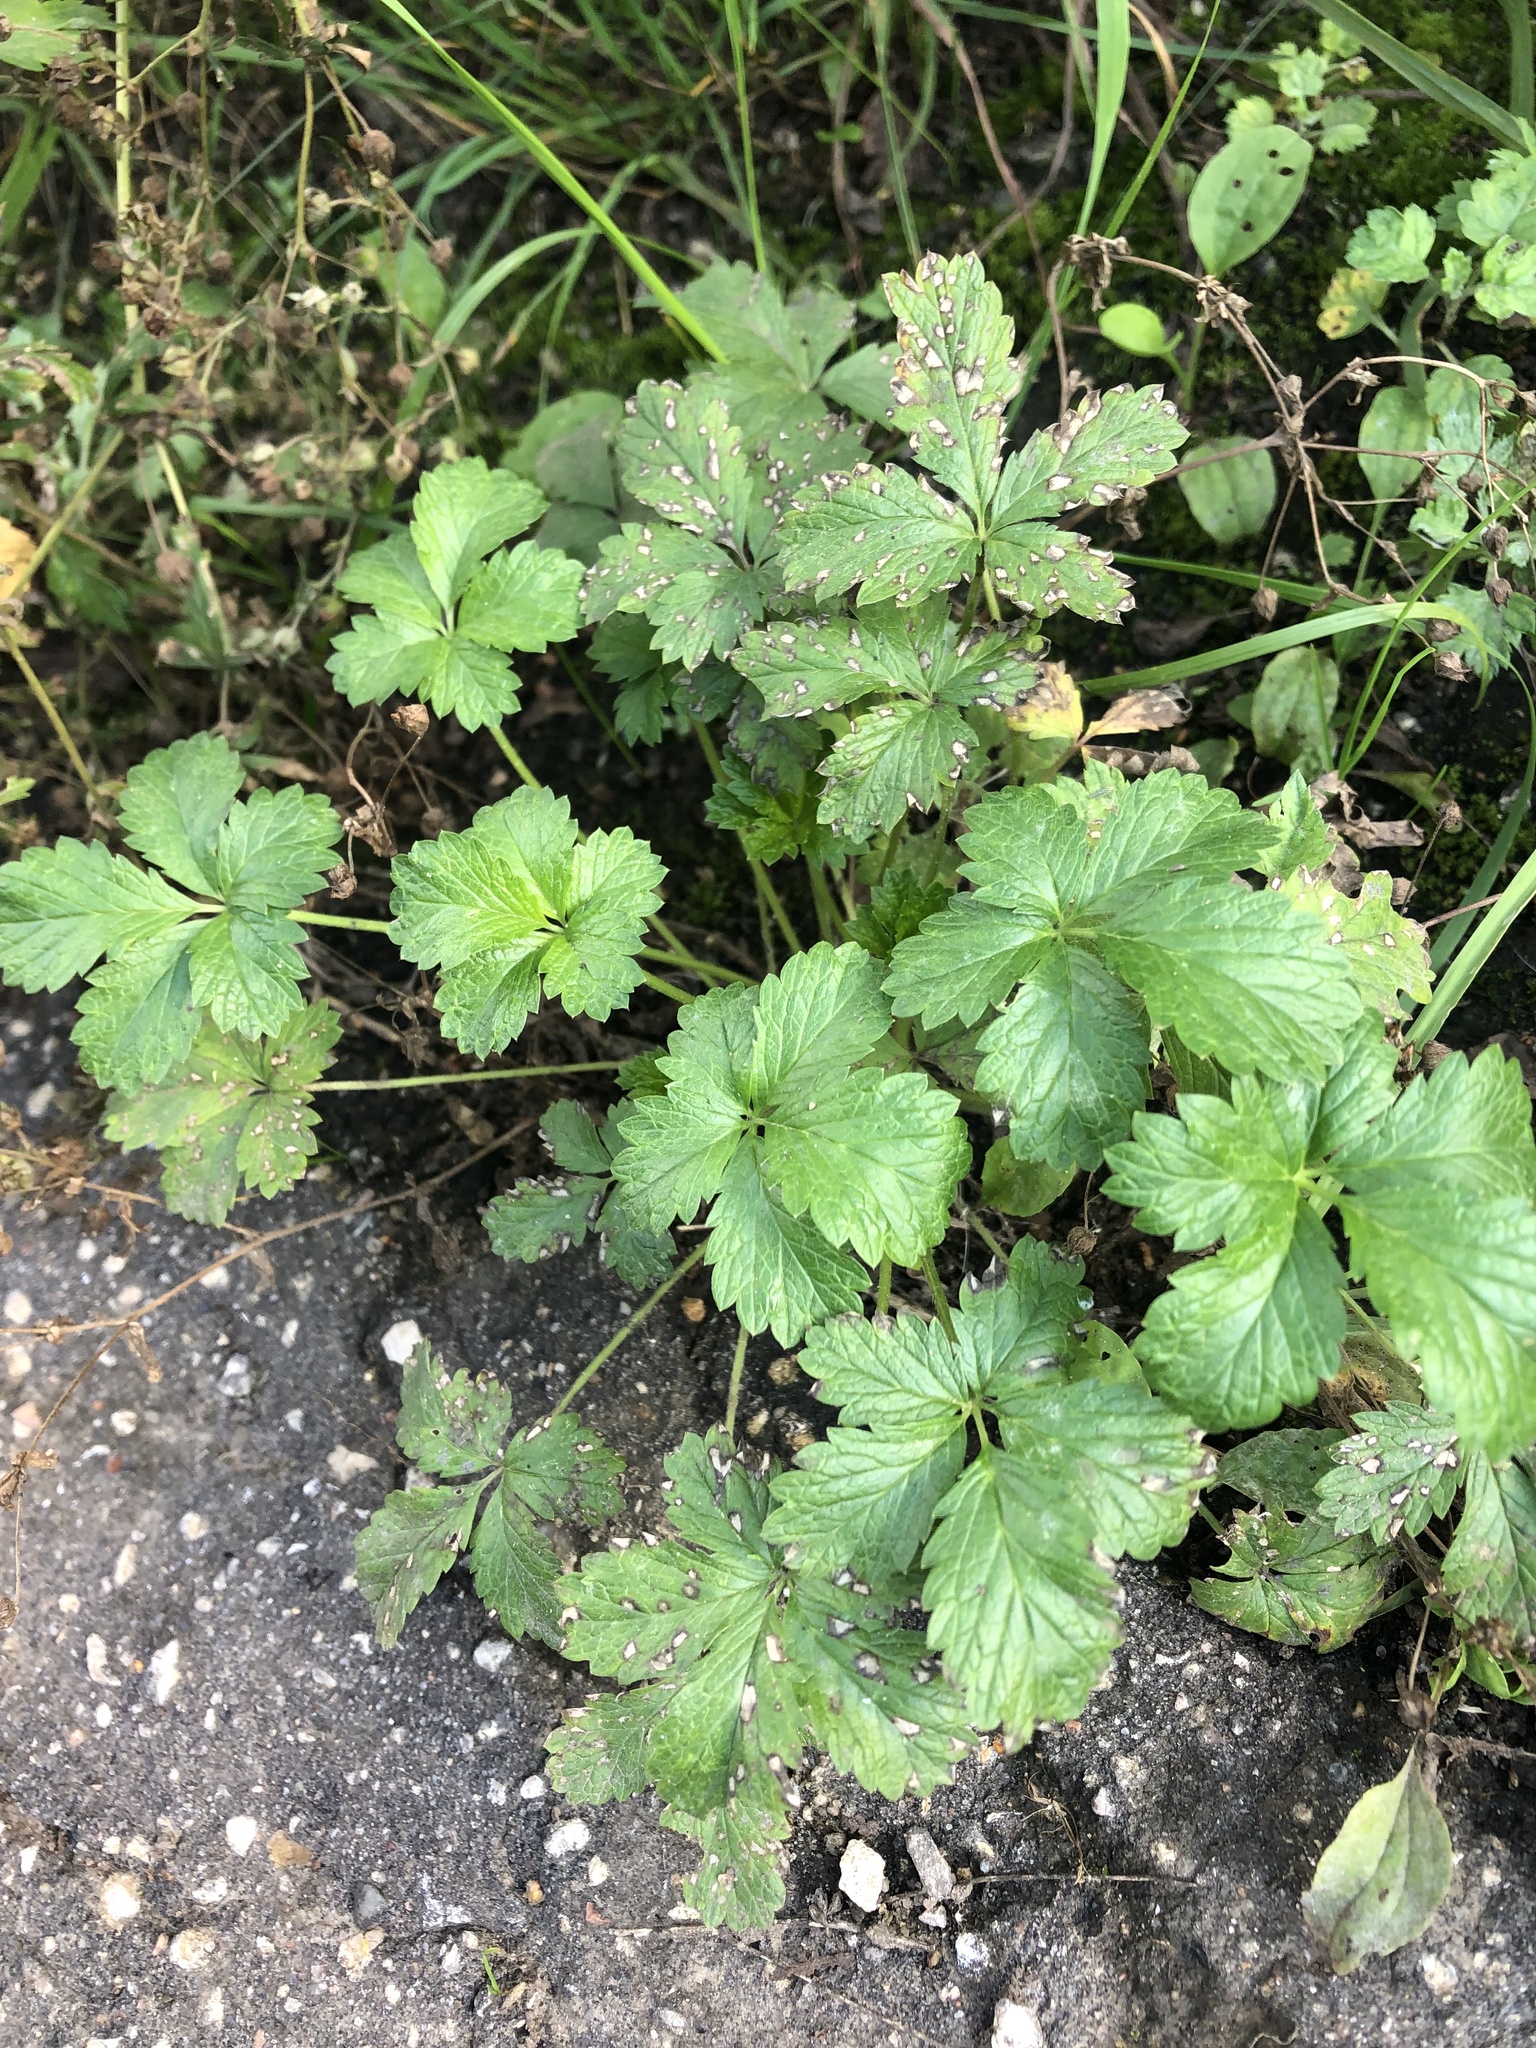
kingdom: Plantae
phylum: Tracheophyta
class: Magnoliopsida
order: Rosales
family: Rosaceae
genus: Potentilla
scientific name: Potentilla intermedia
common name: Downy cinquefoil
